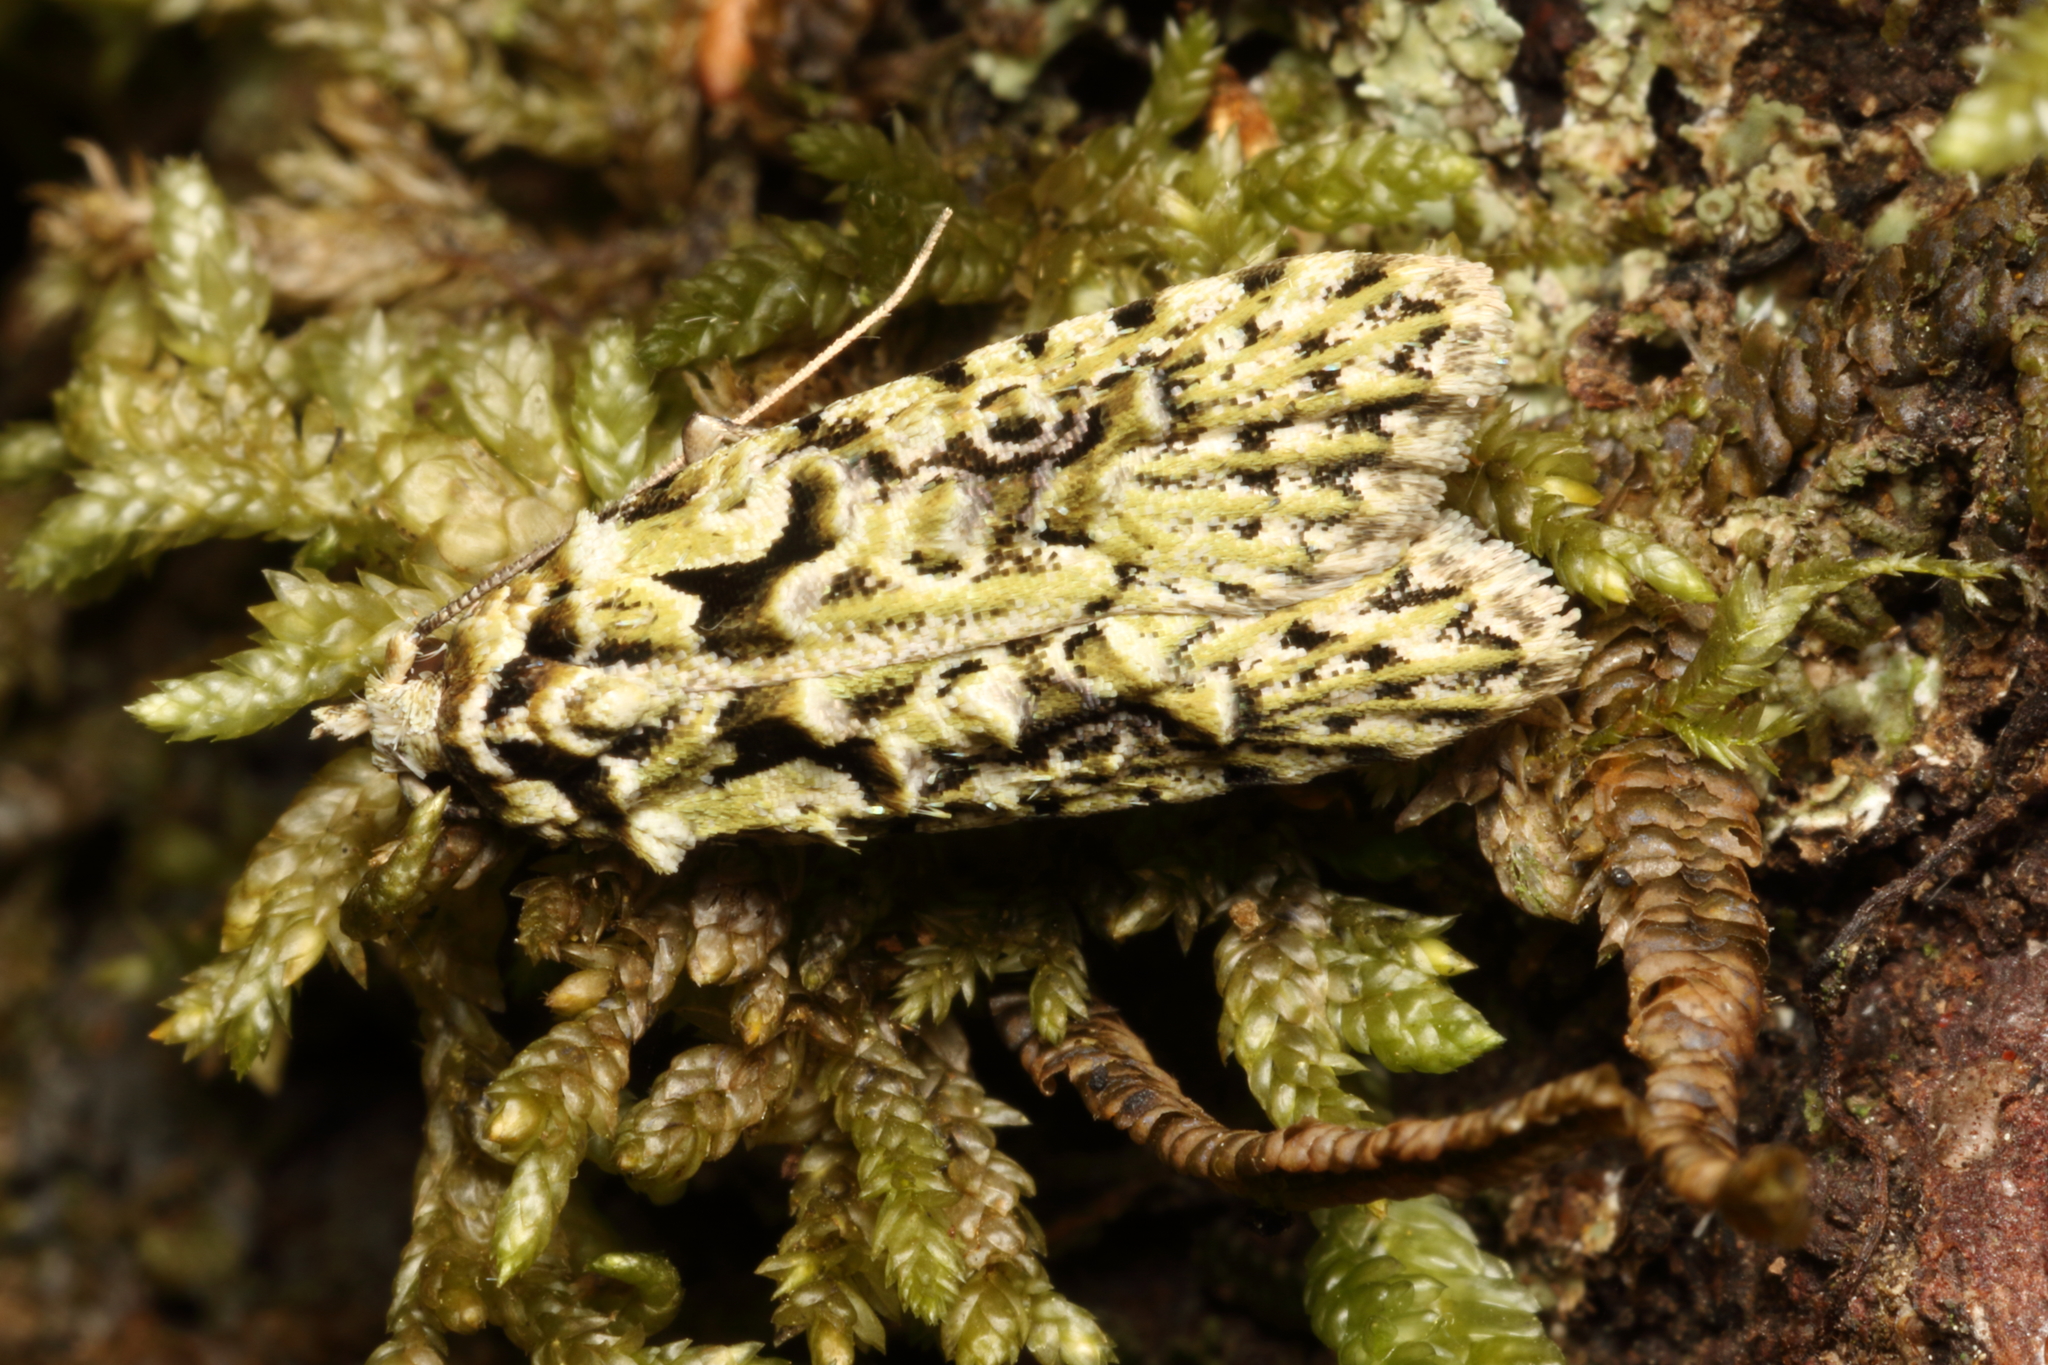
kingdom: Animalia
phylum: Arthropoda
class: Insecta
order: Lepidoptera
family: Carposinidae
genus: Carposina
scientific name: Carposina Heterocrossa eriphylla
